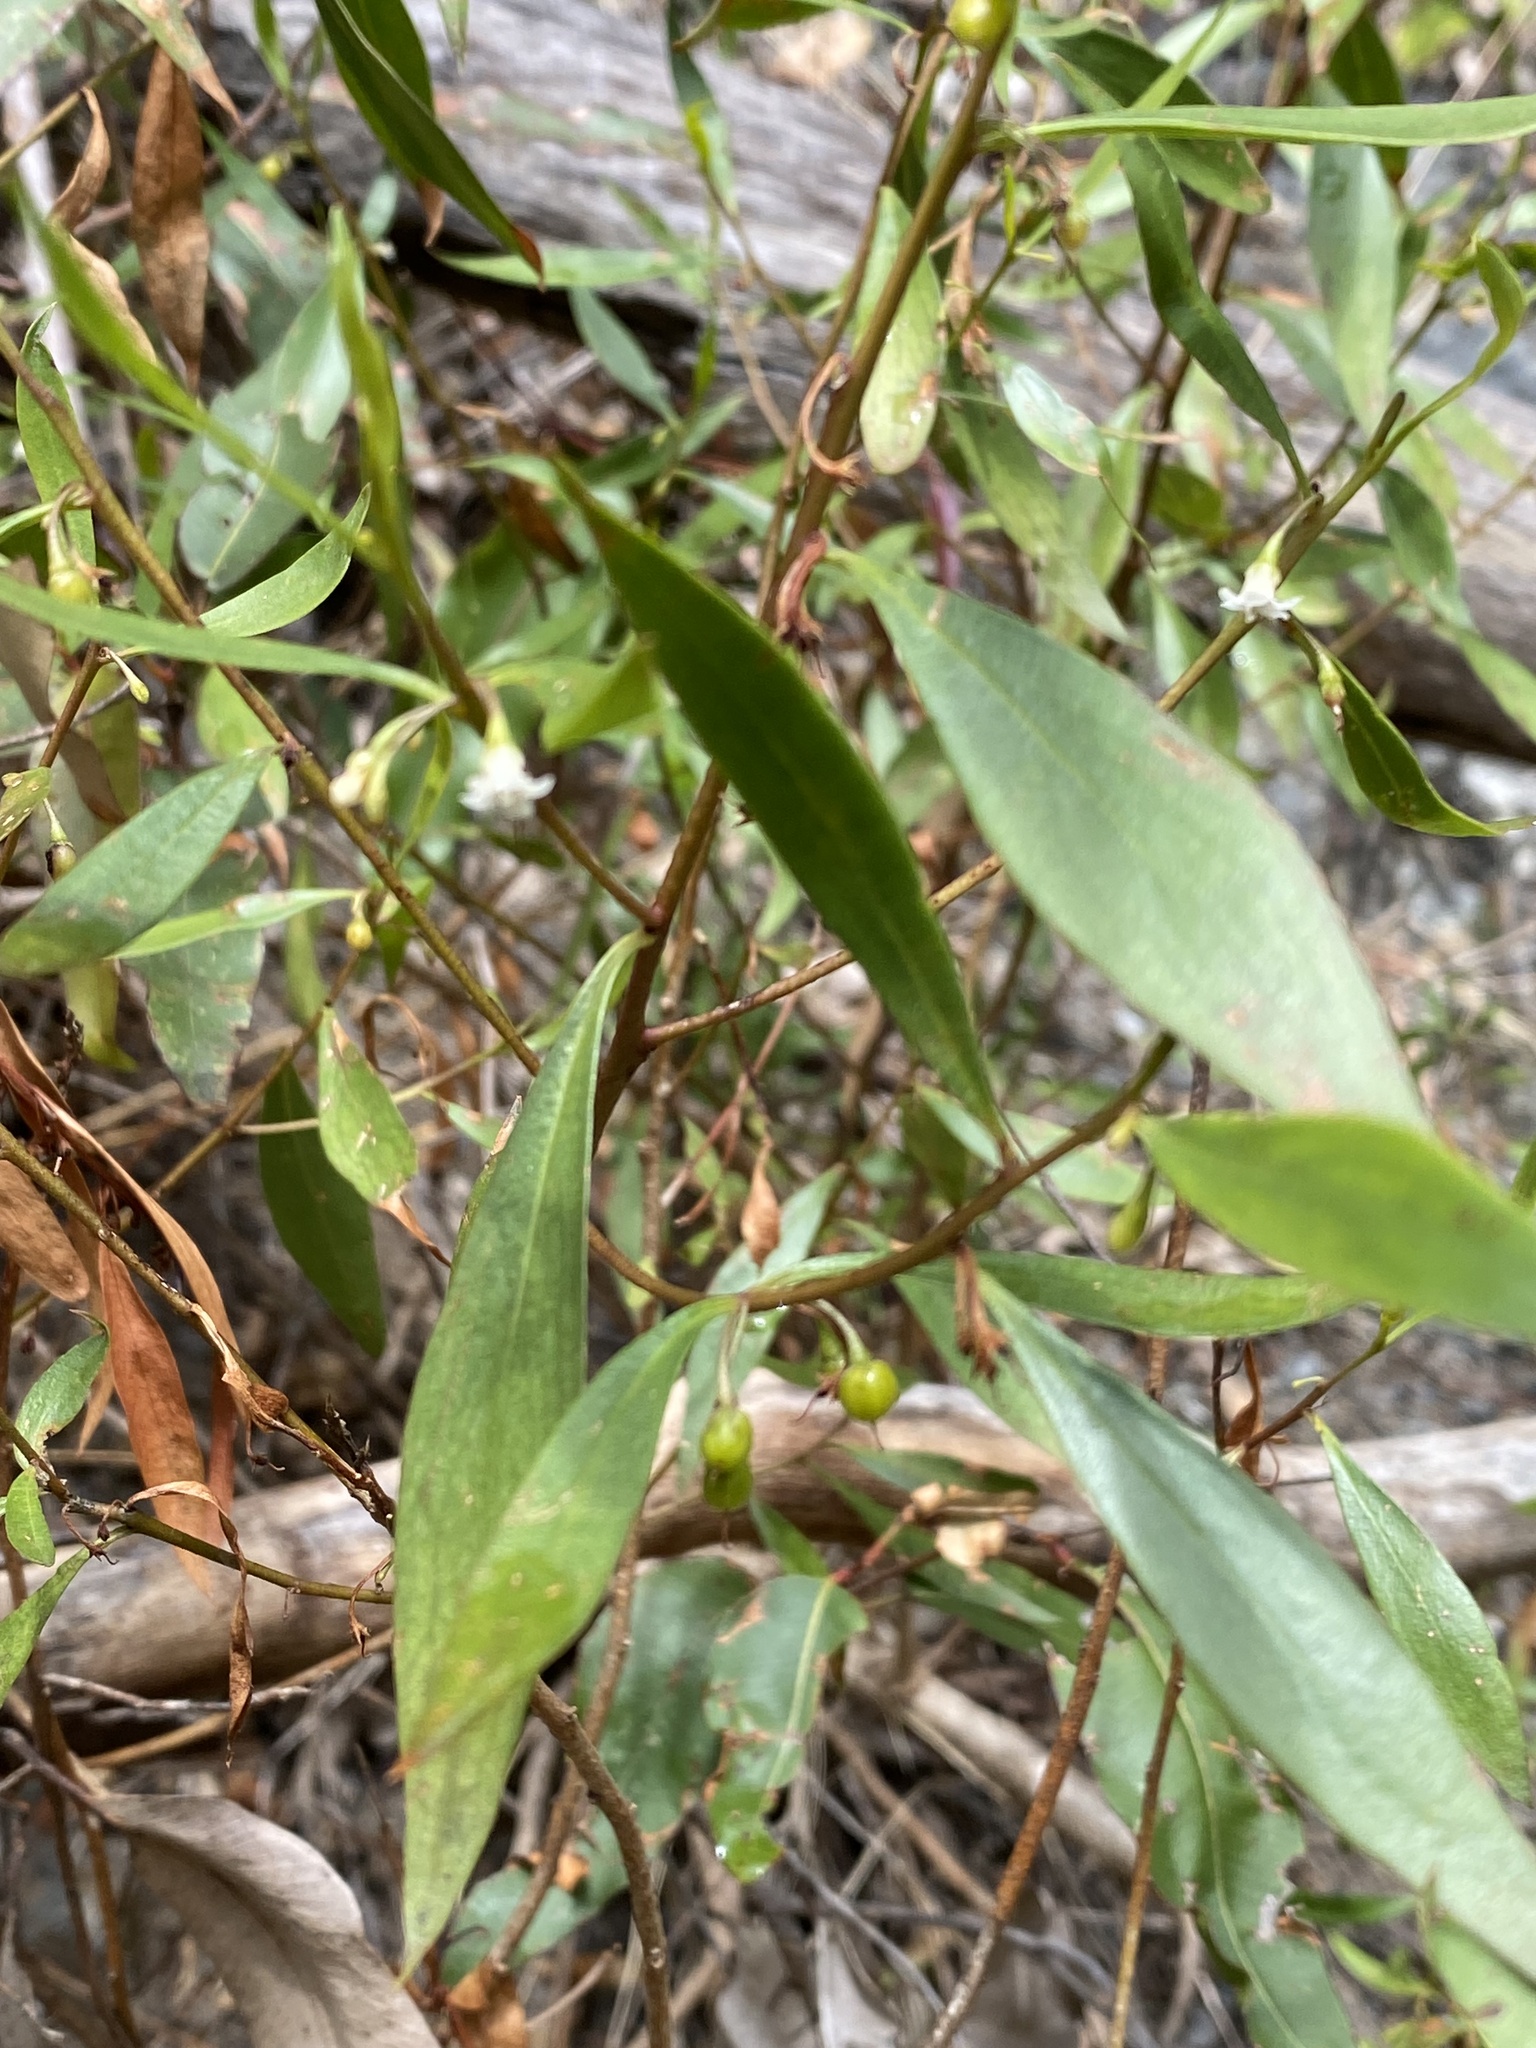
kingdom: Plantae
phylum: Tracheophyta
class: Magnoliopsida
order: Lamiales
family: Scrophulariaceae
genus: Myoporum
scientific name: Myoporum montanum
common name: Waterbush
